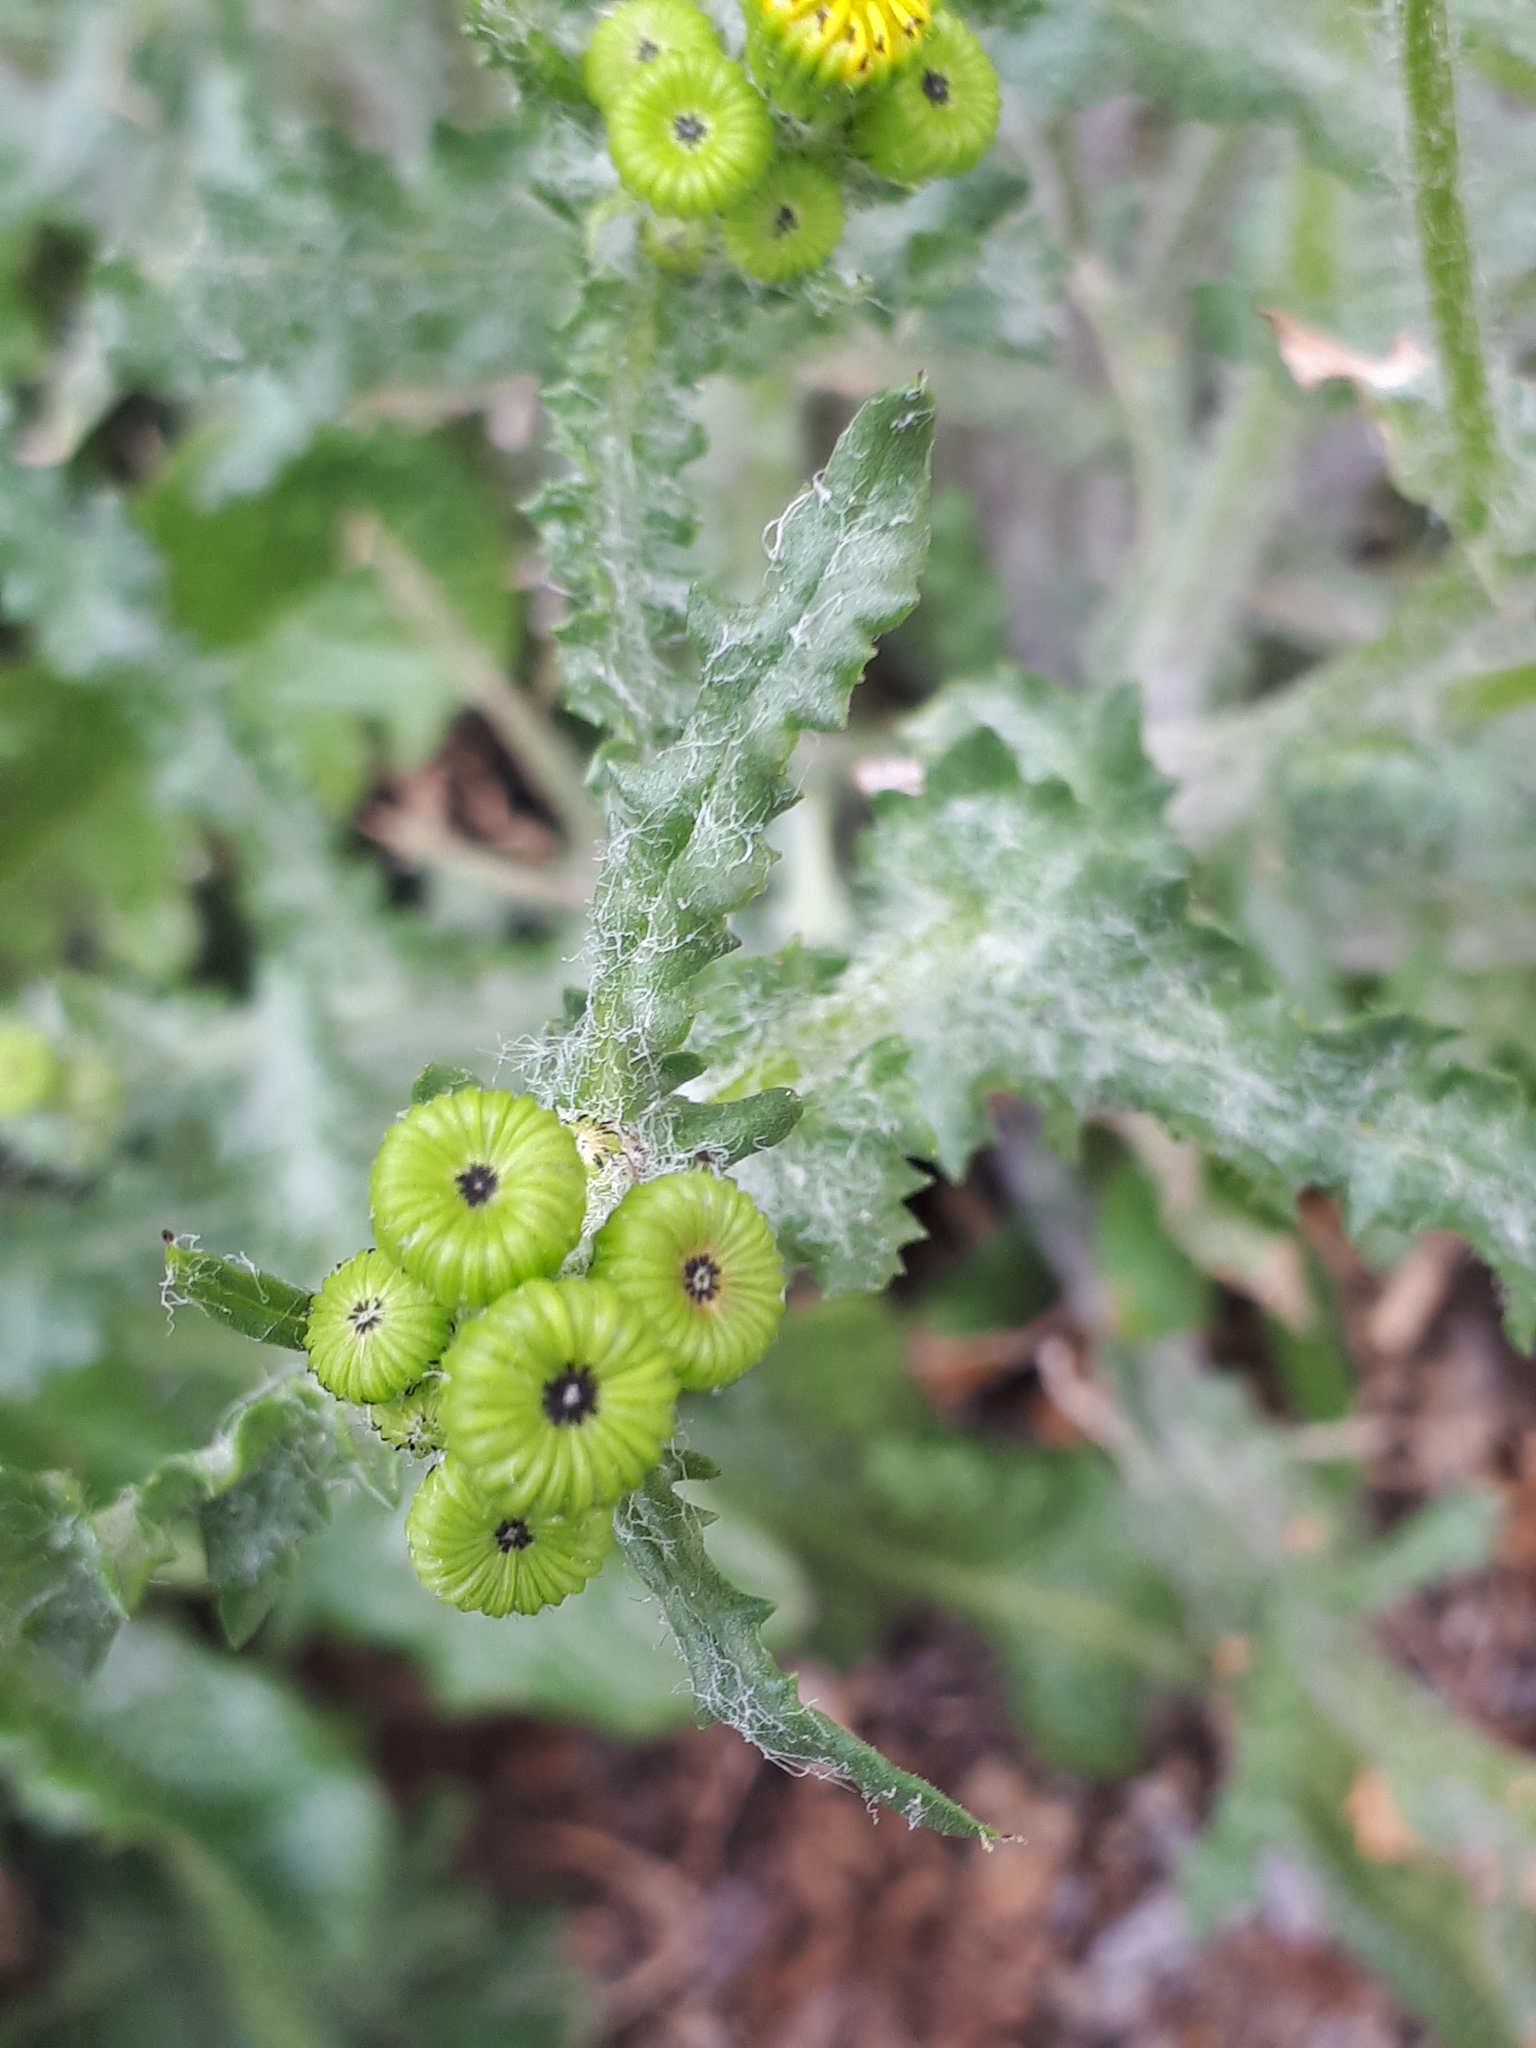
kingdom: Plantae
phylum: Tracheophyta
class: Magnoliopsida
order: Asterales
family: Asteraceae
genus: Senecio
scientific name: Senecio vernalis
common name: Eastern groundsel
